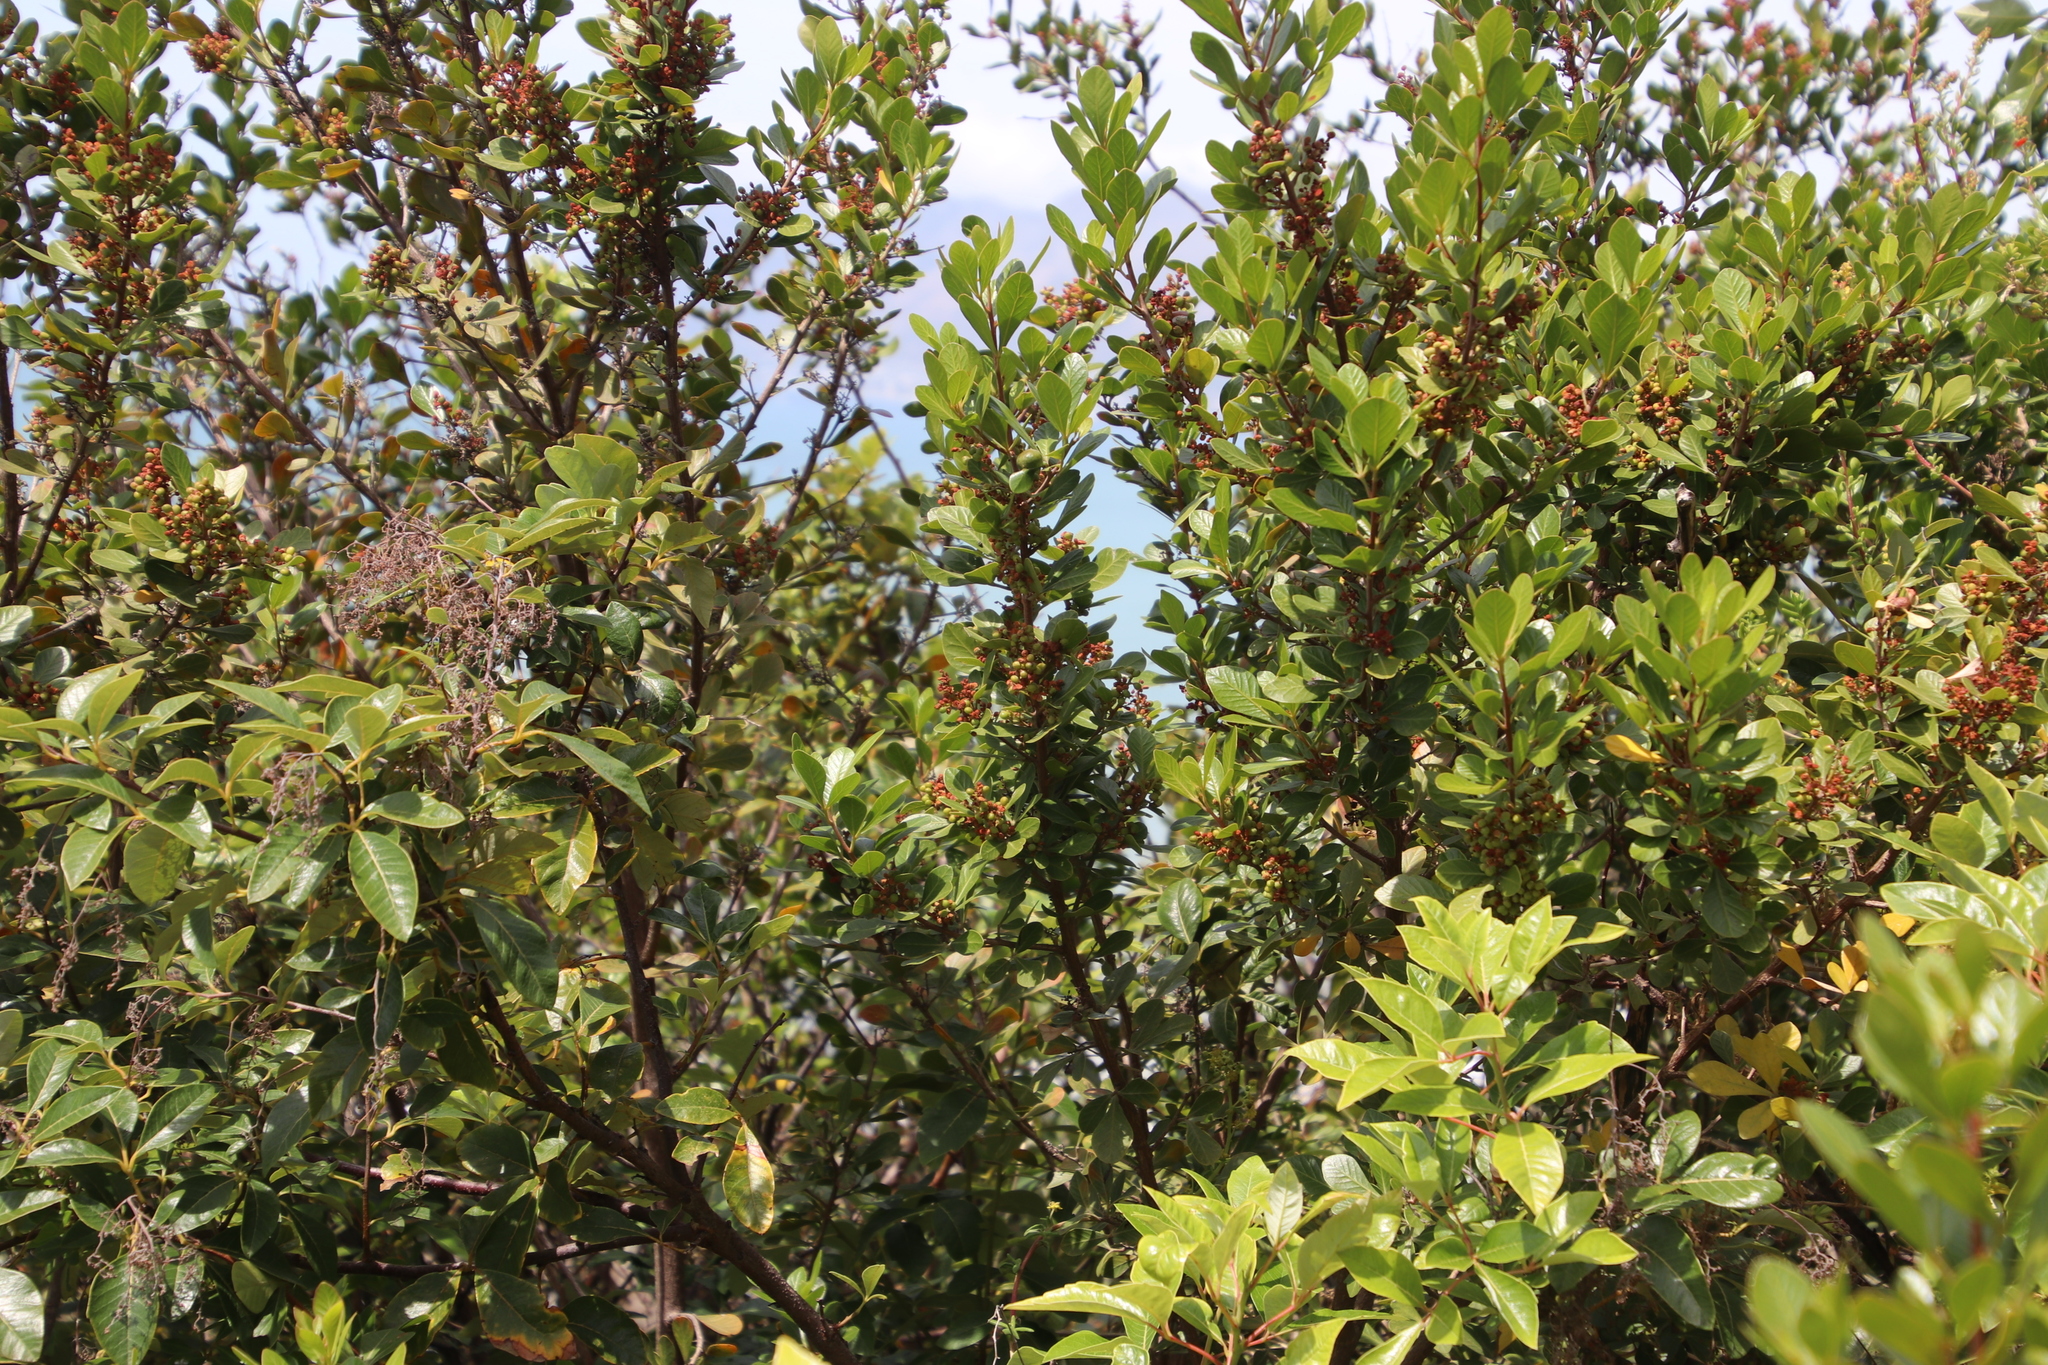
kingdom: Plantae
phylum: Tracheophyta
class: Magnoliopsida
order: Sapindales
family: Anacardiaceae
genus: Searsia
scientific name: Searsia lucida
